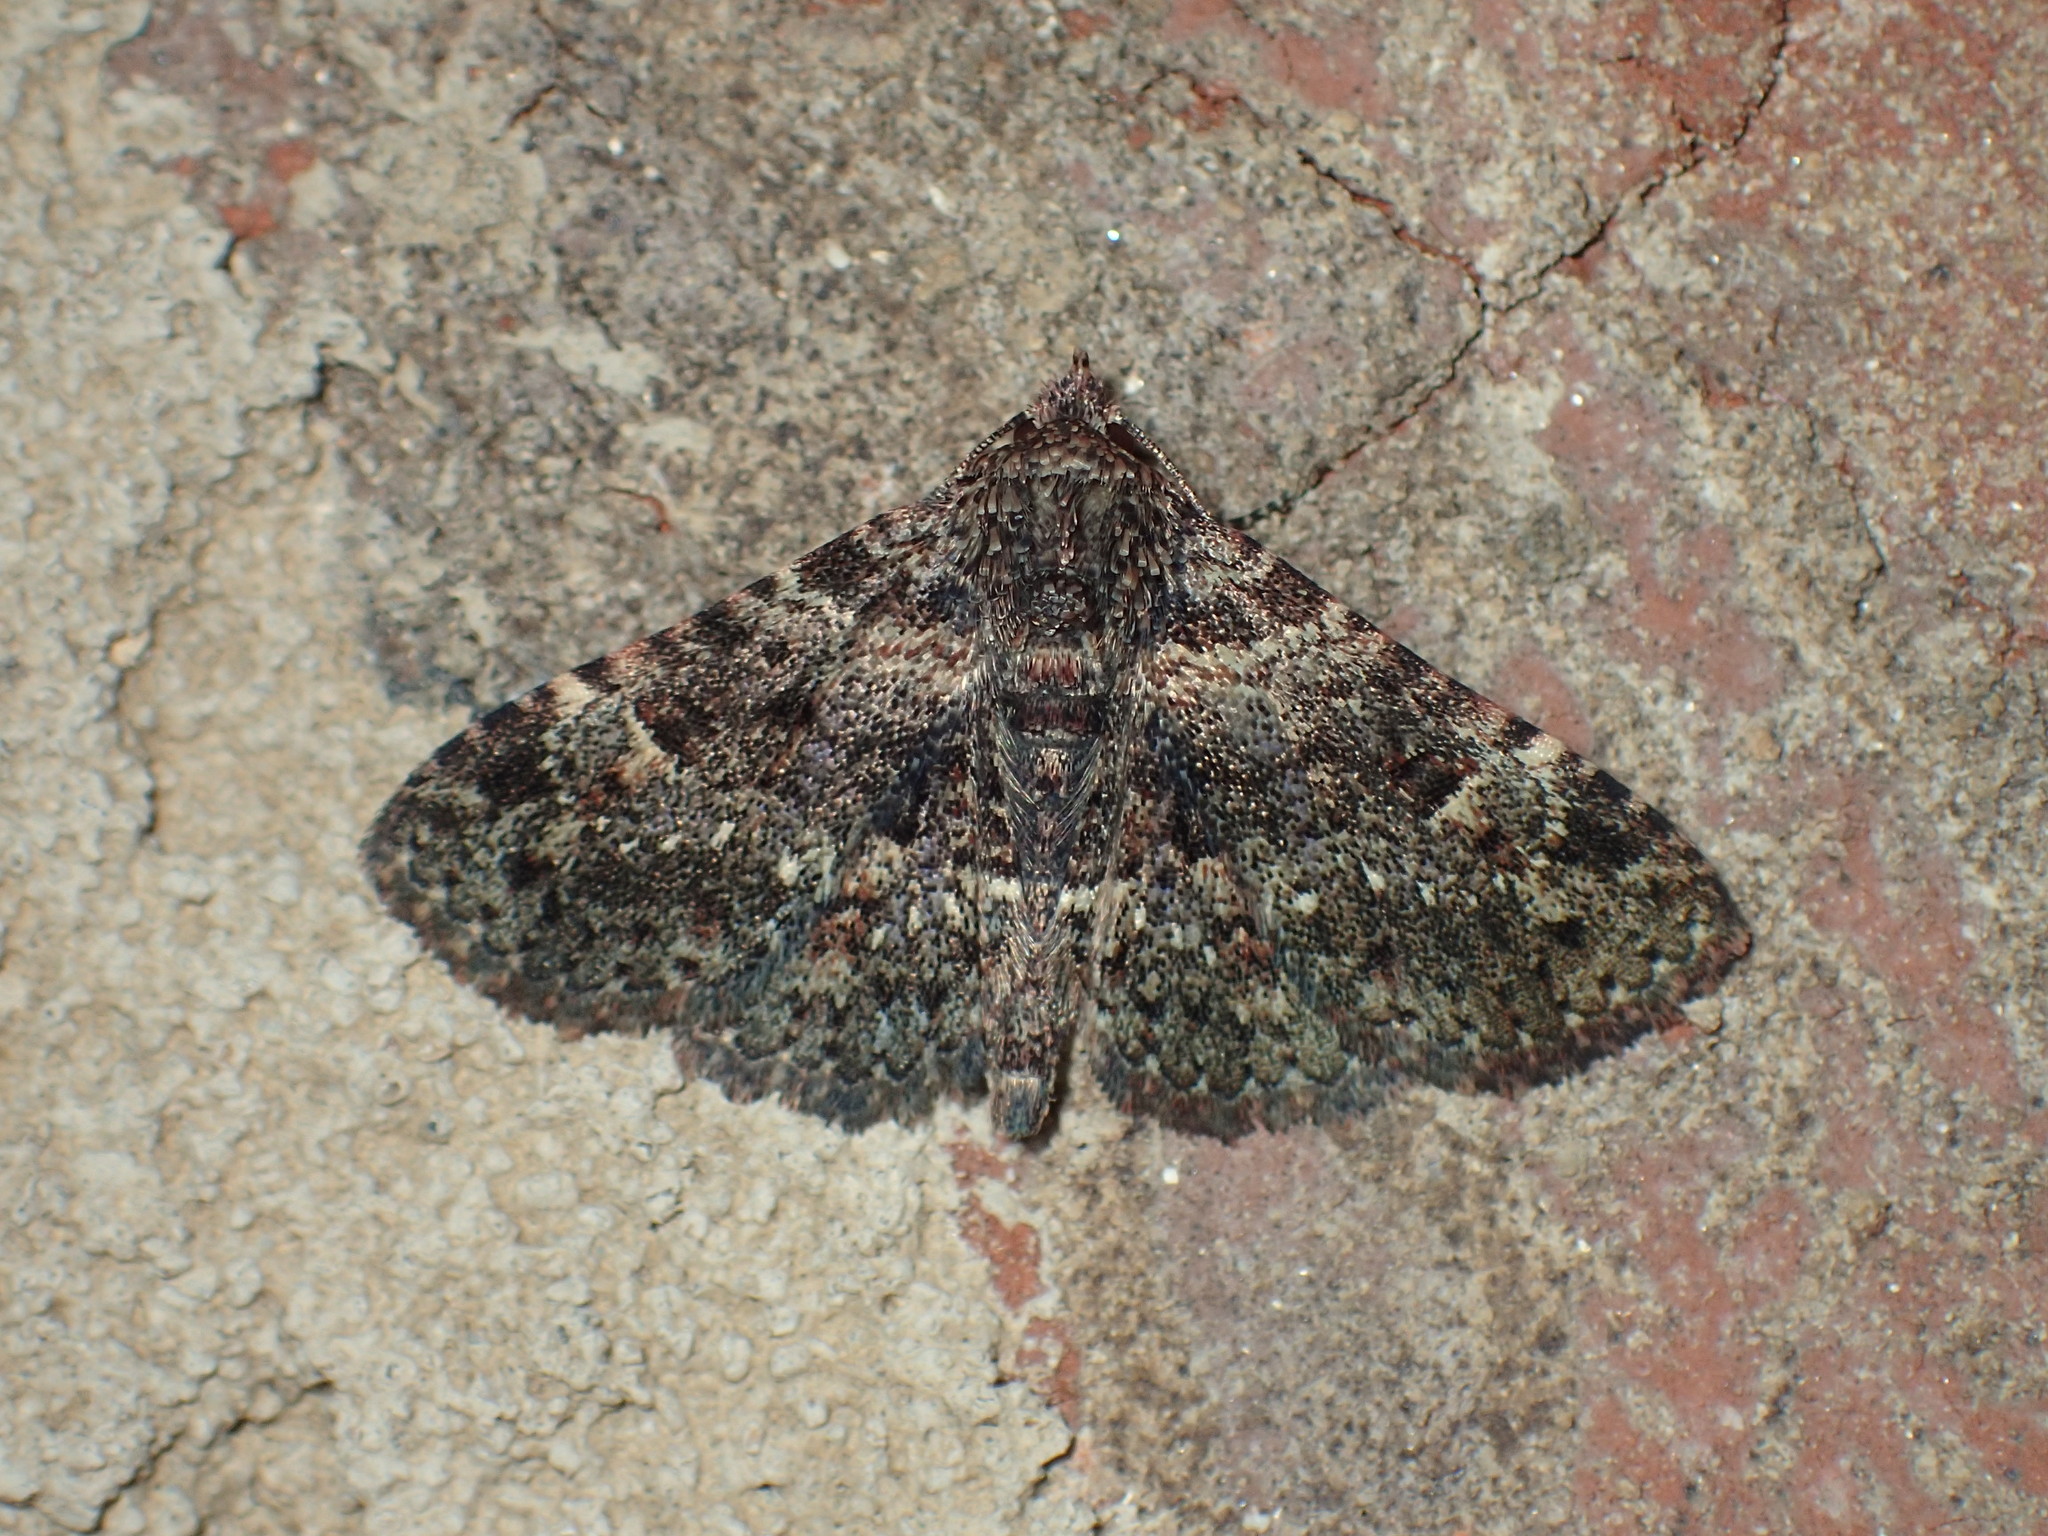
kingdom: Animalia
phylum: Arthropoda
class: Insecta
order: Lepidoptera
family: Erebidae
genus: Metalectra
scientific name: Metalectra discalis
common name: Common fungus moth
